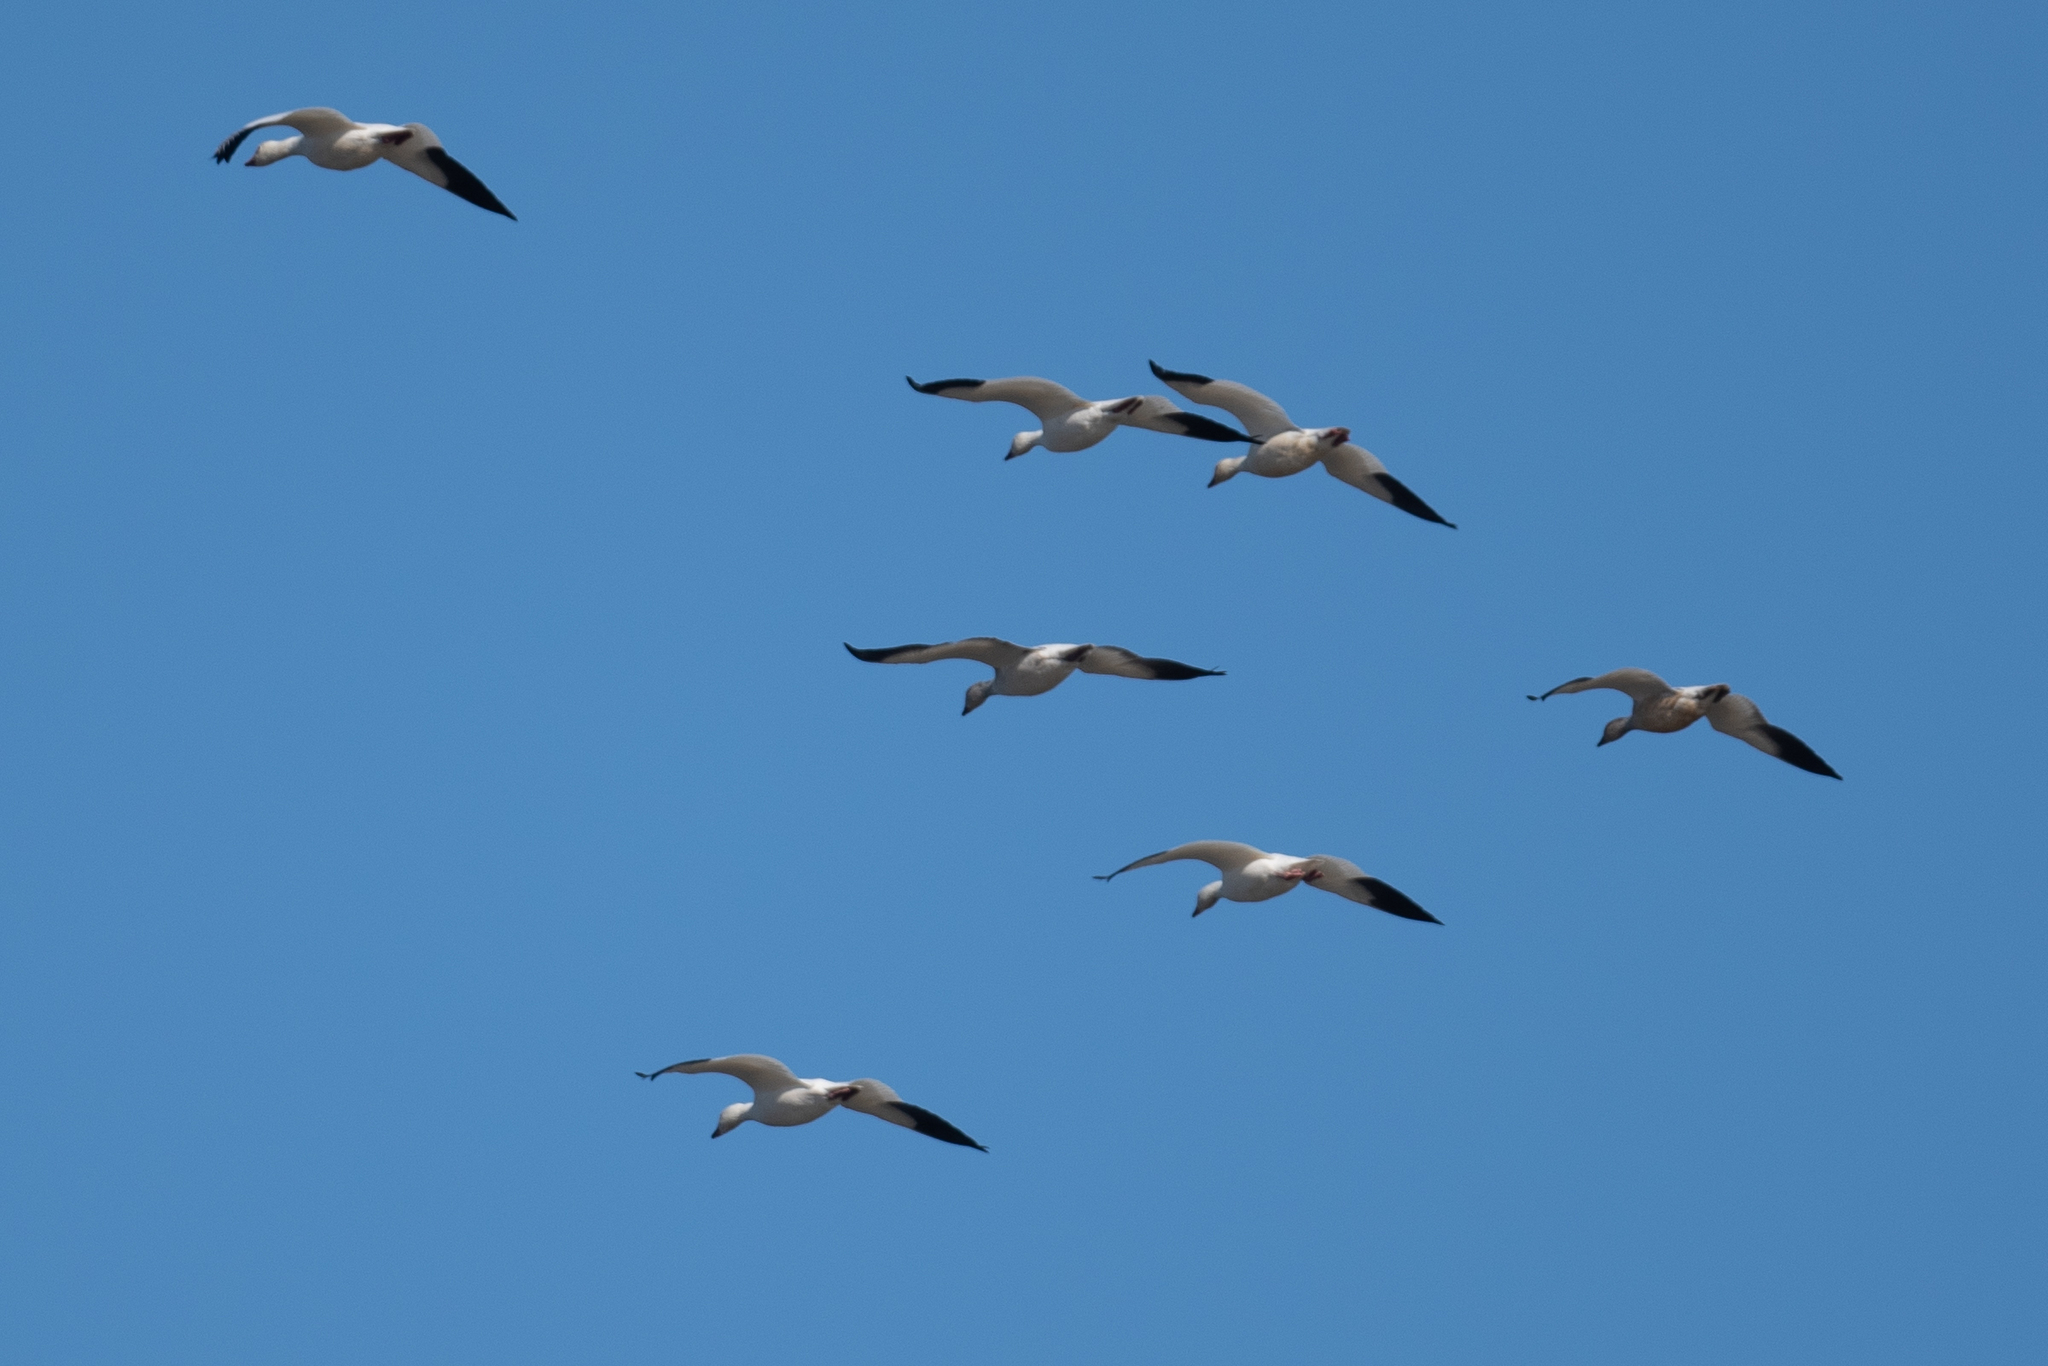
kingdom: Animalia
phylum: Chordata
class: Aves
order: Anseriformes
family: Anatidae
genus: Anser
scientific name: Anser caerulescens
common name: Snow goose
